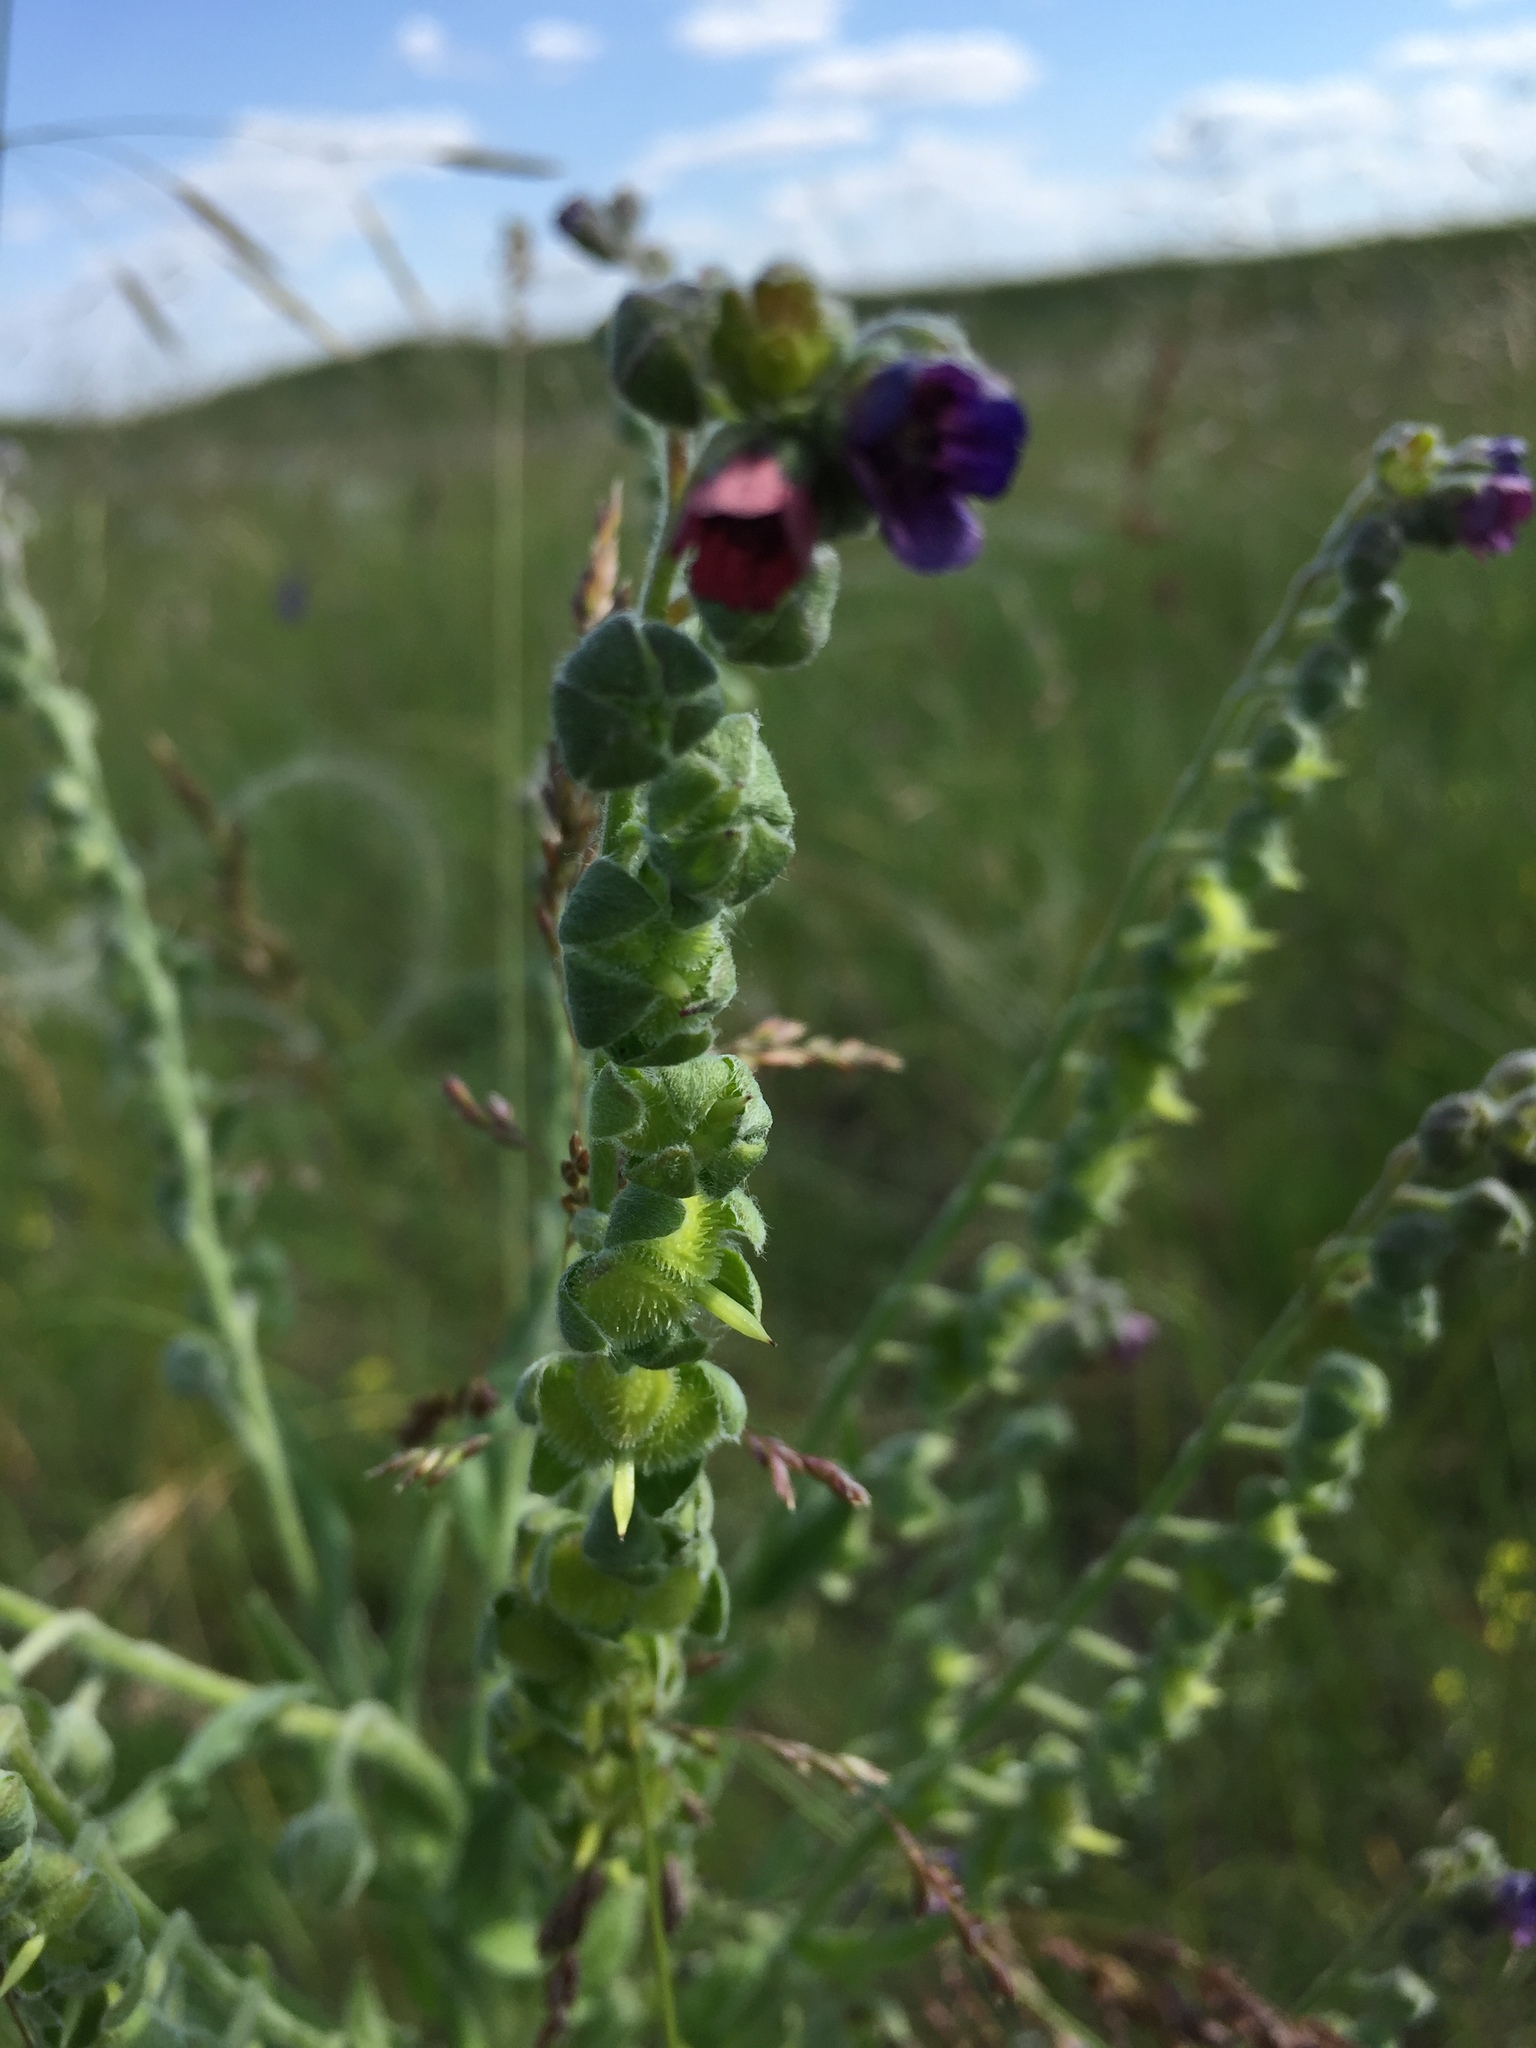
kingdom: Plantae
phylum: Tracheophyta
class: Magnoliopsida
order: Boraginales
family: Boraginaceae
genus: Cynoglossum
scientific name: Cynoglossum officinale
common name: Hound's-tongue
